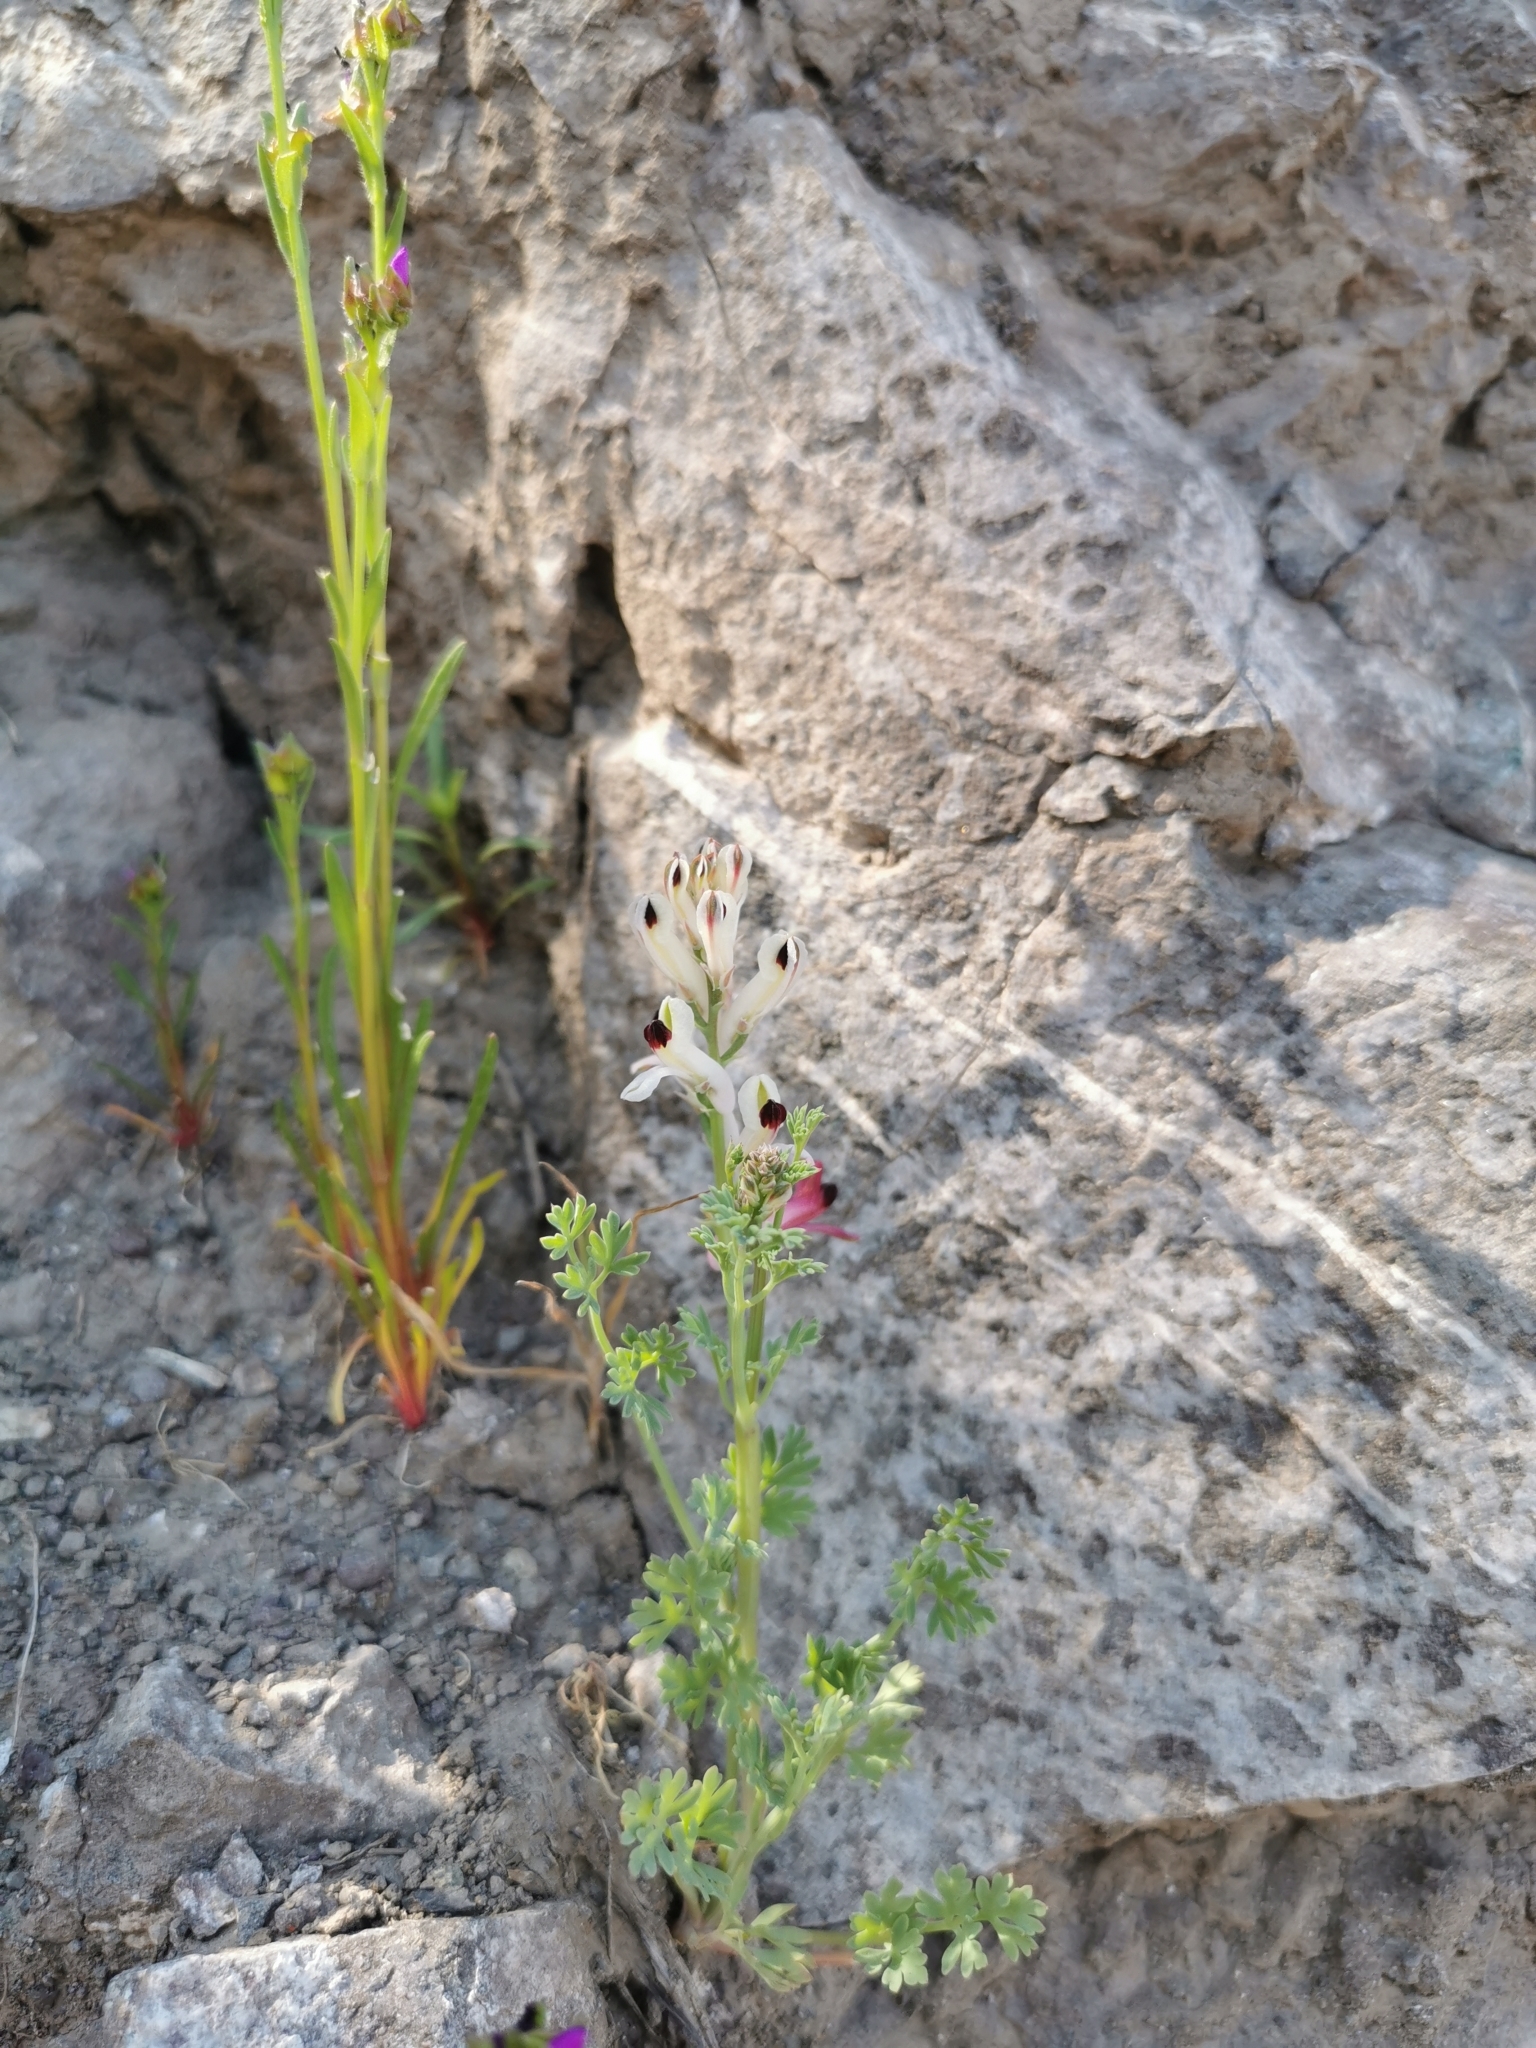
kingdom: Plantae
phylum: Tracheophyta
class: Magnoliopsida
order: Ranunculales
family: Papaveraceae
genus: Fumaria
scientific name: Fumaria agraria
